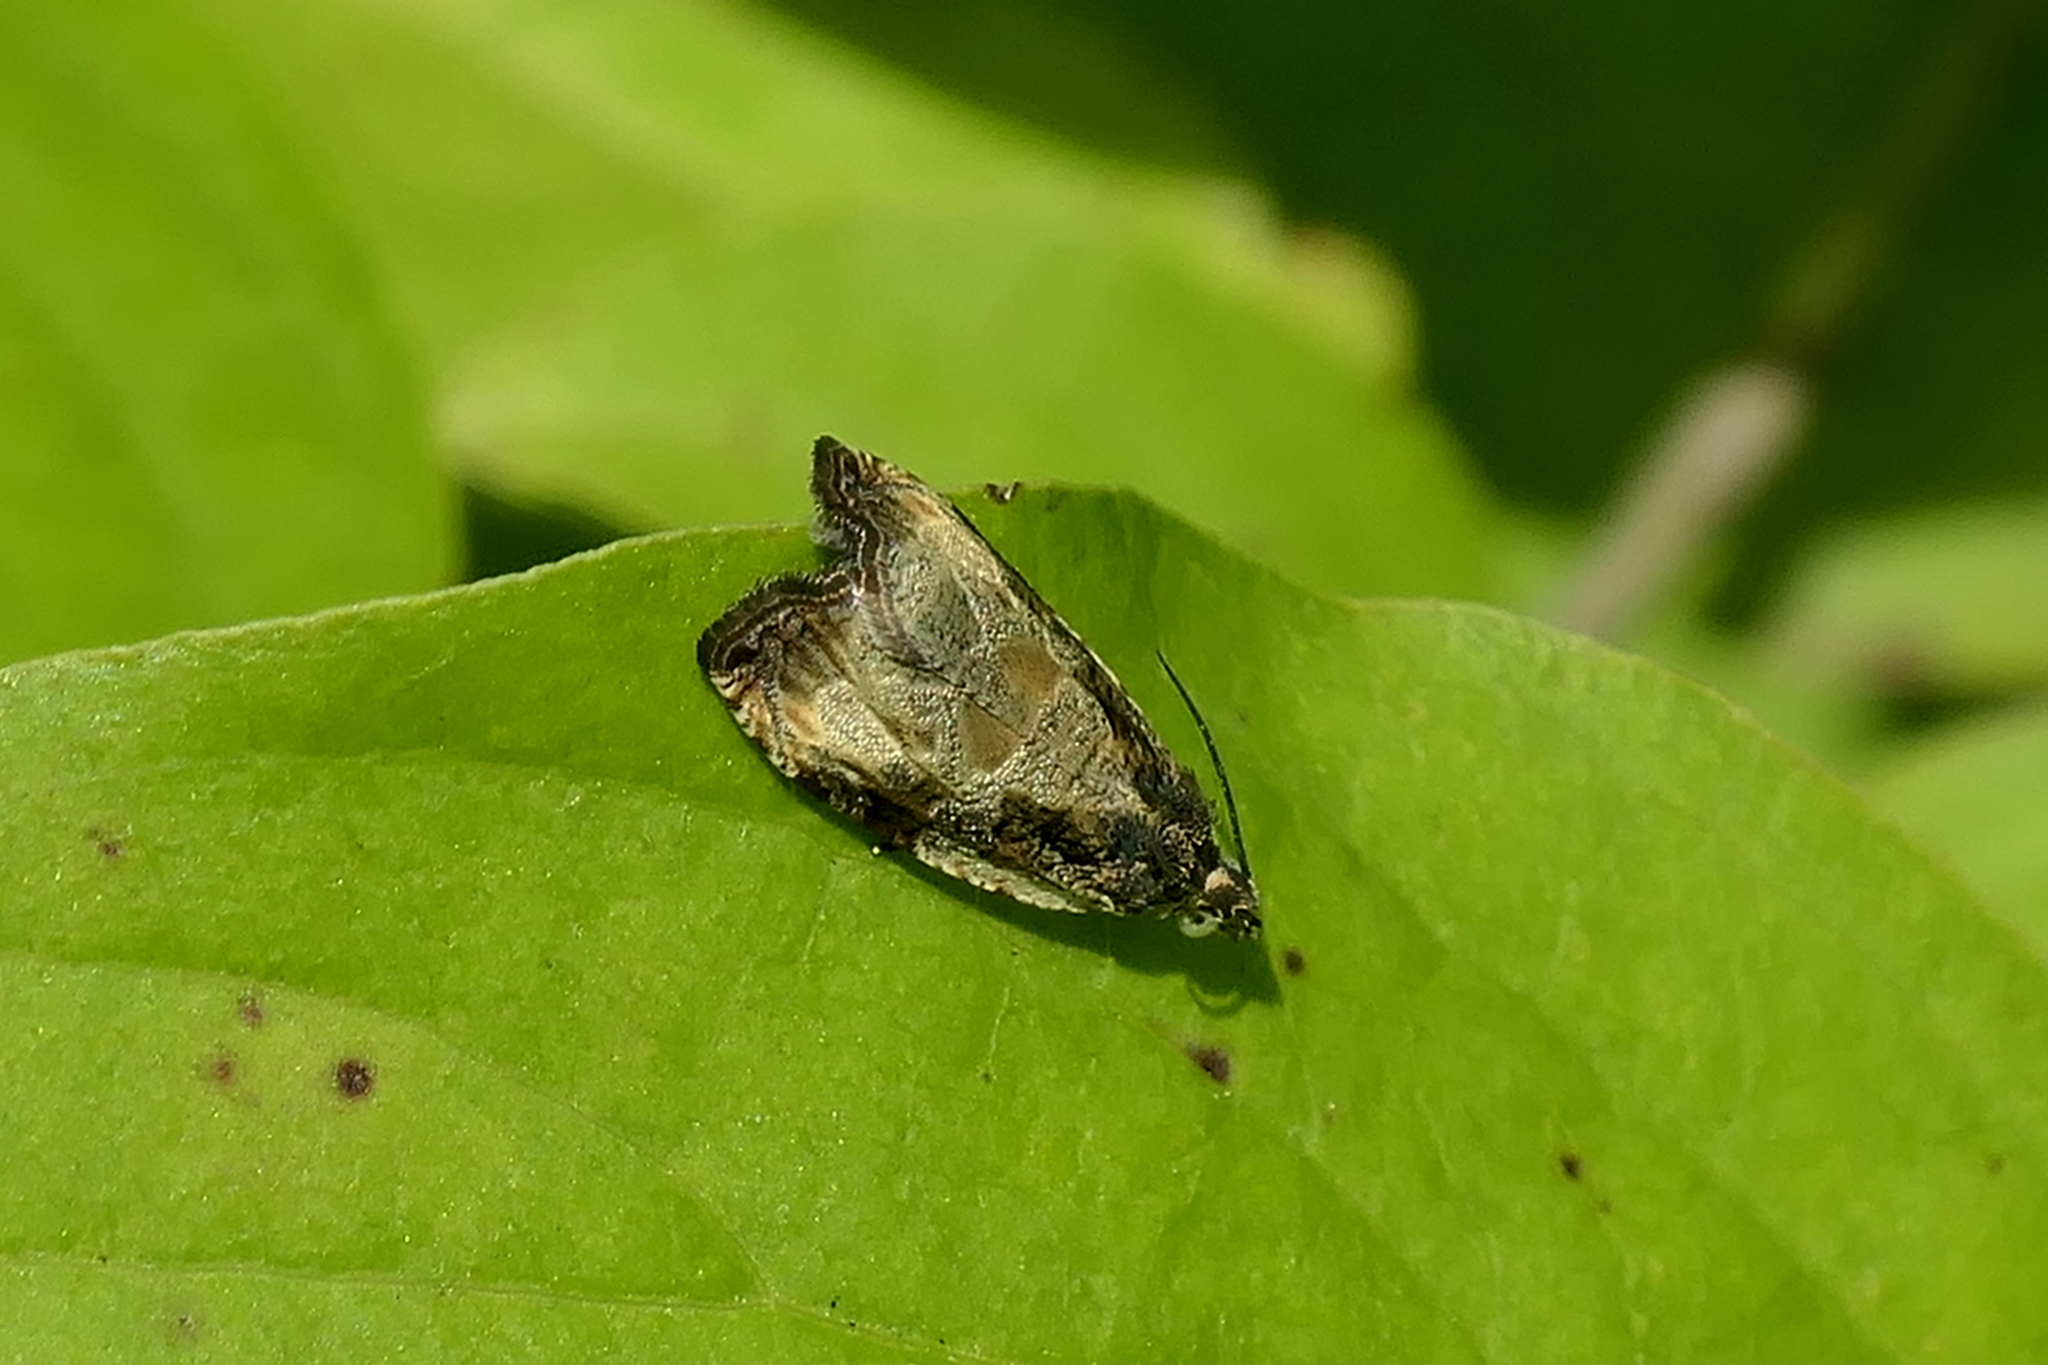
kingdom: Animalia
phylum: Arthropoda
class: Insecta
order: Lepidoptera
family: Tortricidae
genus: Olethreutes
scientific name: Olethreutes connectum
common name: Bunchberry leaffolder moth
